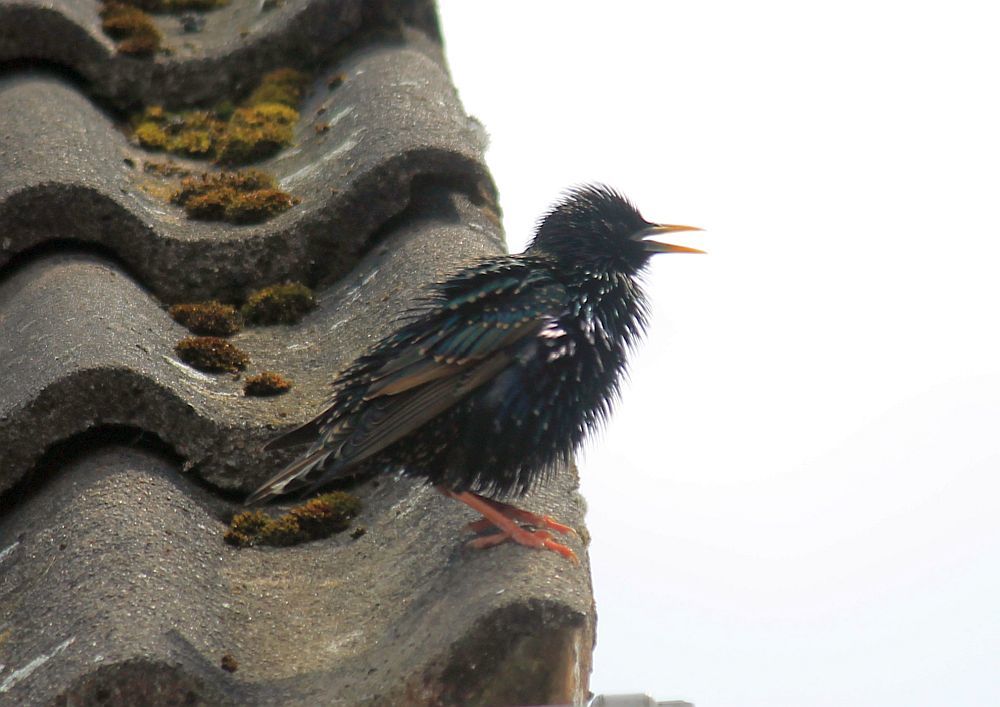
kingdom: Animalia
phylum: Chordata
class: Aves
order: Passeriformes
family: Sturnidae
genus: Sturnus
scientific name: Sturnus vulgaris
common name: Common starling
